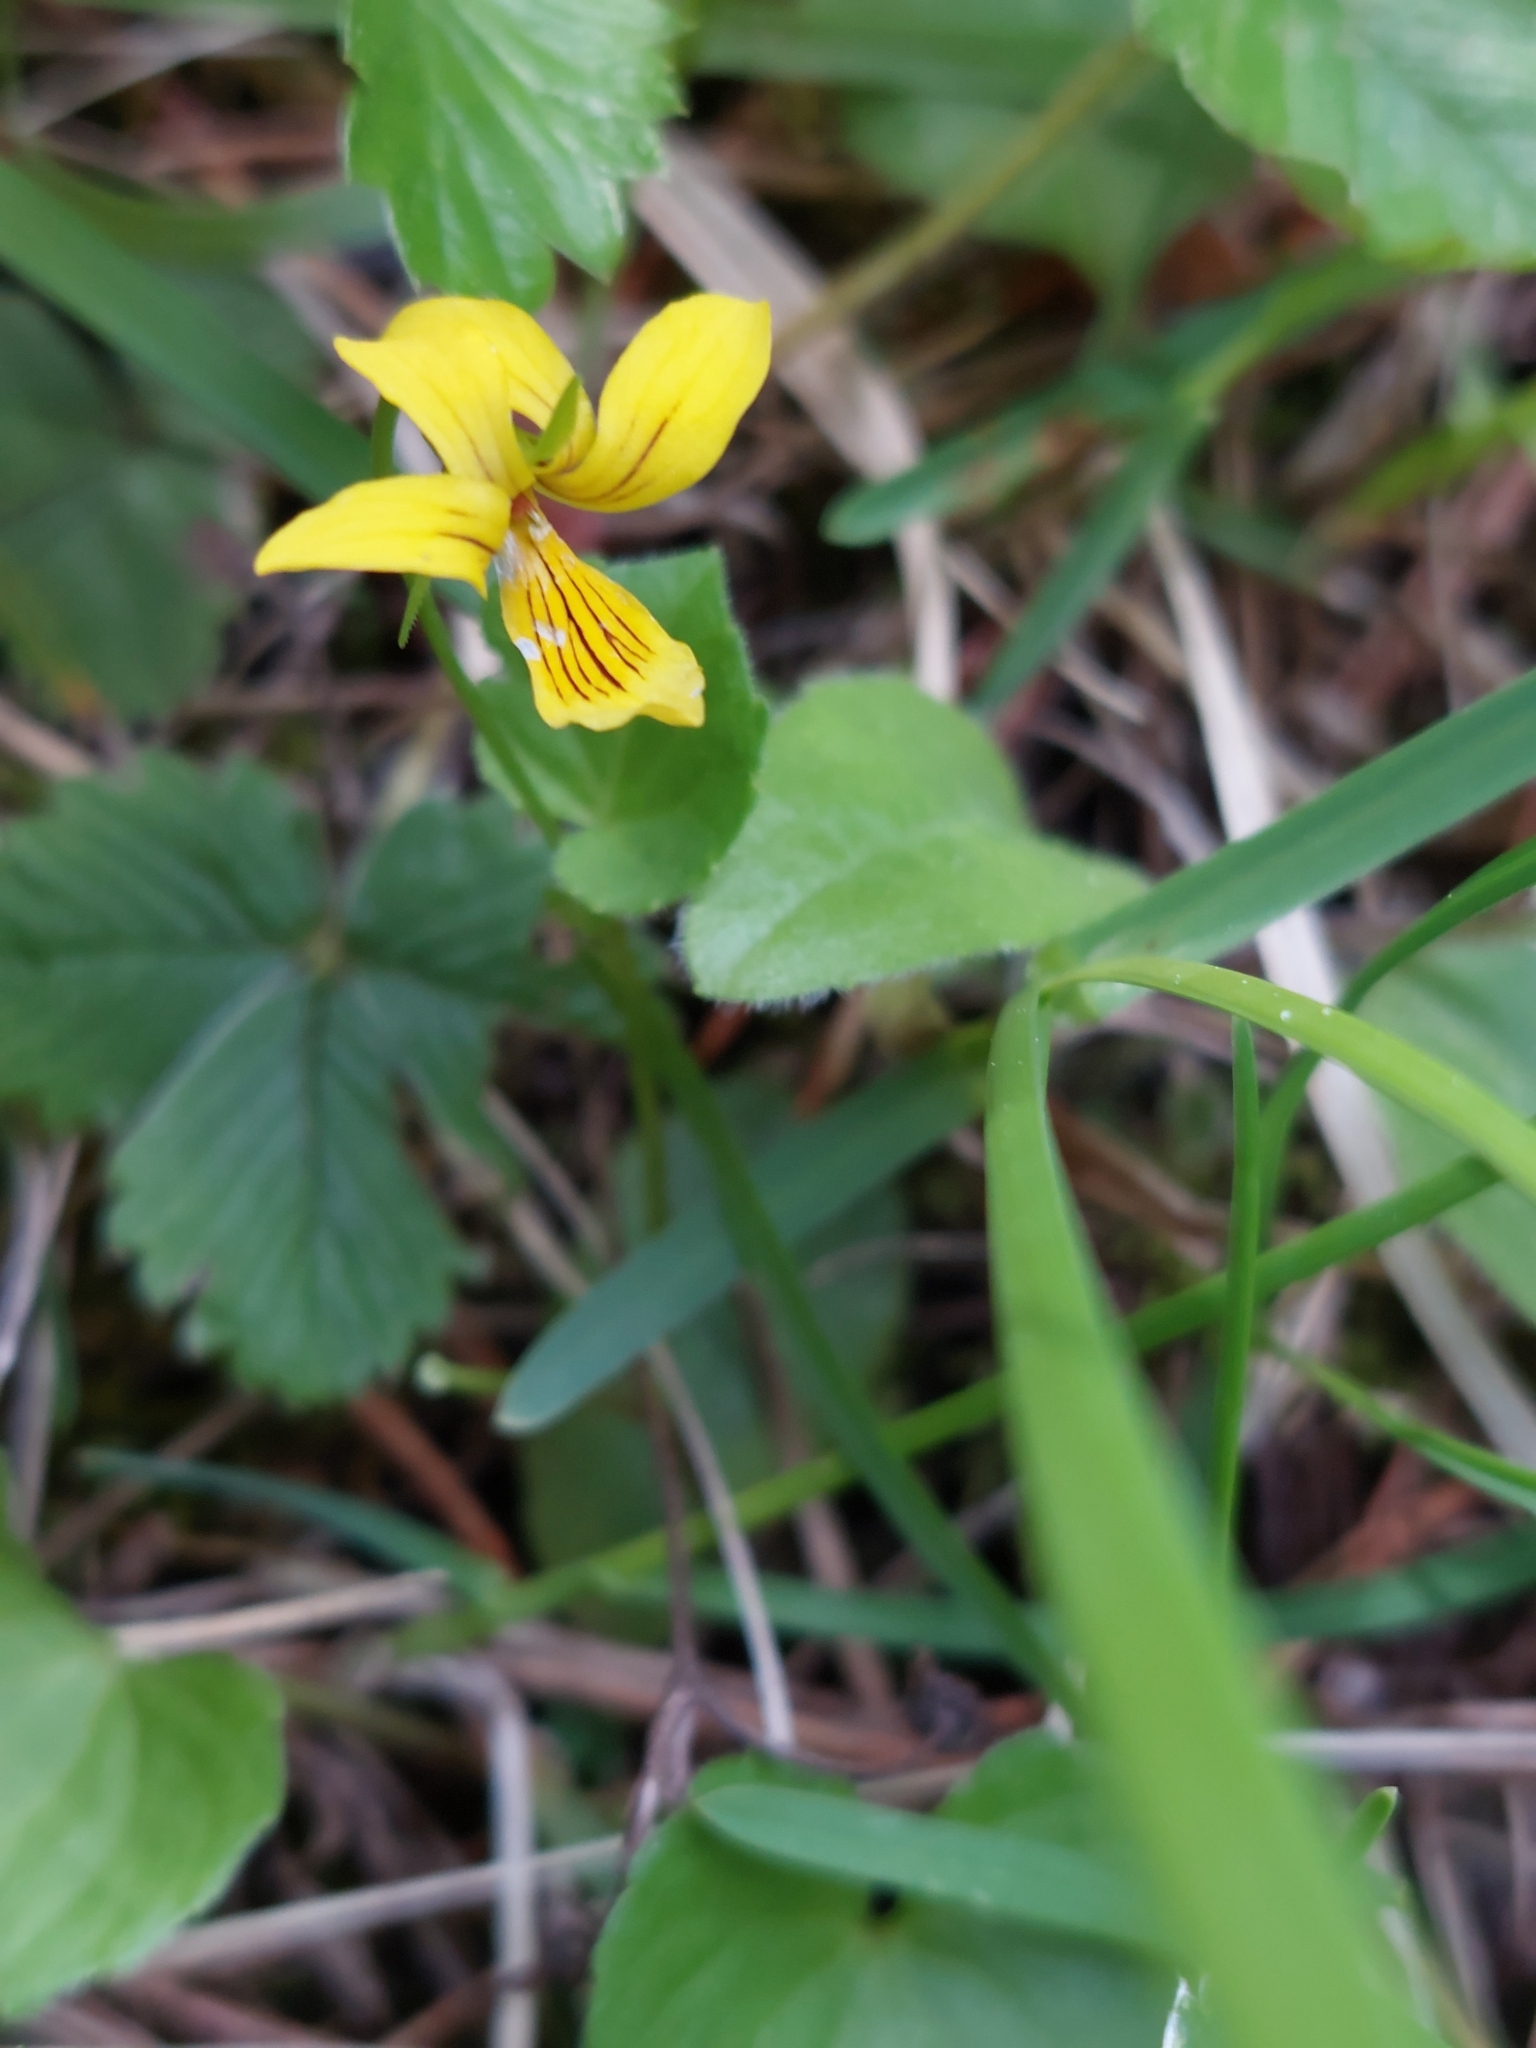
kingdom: Plantae
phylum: Tracheophyta
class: Magnoliopsida
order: Malpighiales
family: Violaceae
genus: Viola
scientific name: Viola biflora
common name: Alpine yellow violet
